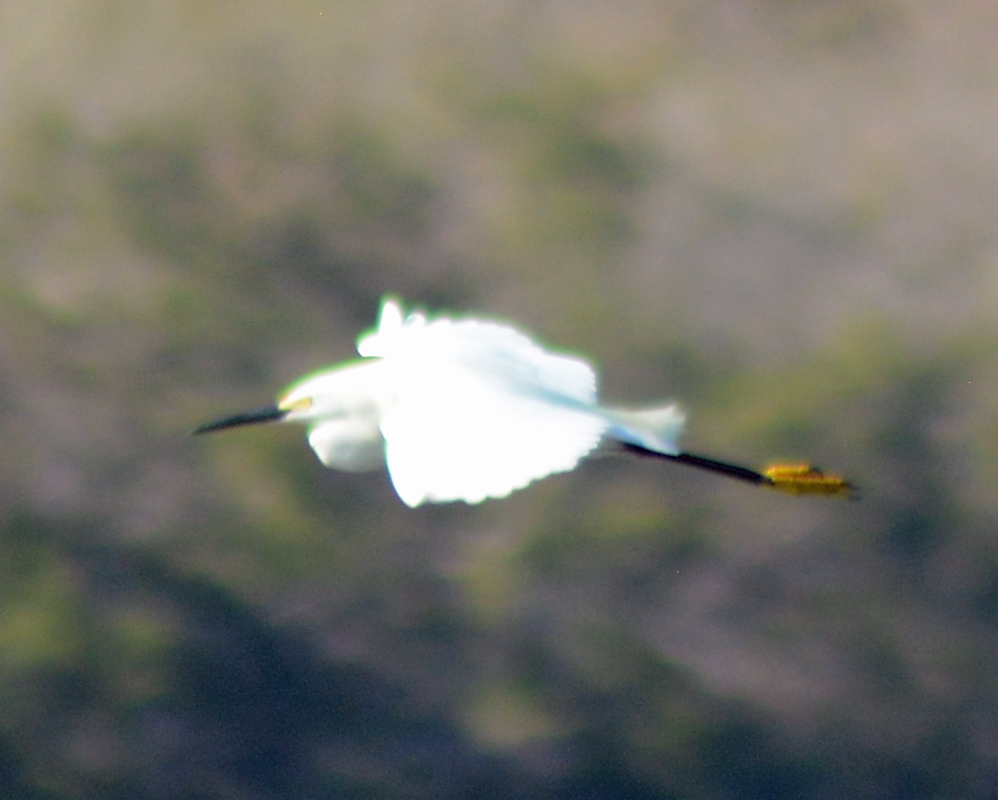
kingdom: Animalia
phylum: Chordata
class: Aves
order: Pelecaniformes
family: Ardeidae
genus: Egretta
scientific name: Egretta thula
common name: Snowy egret
